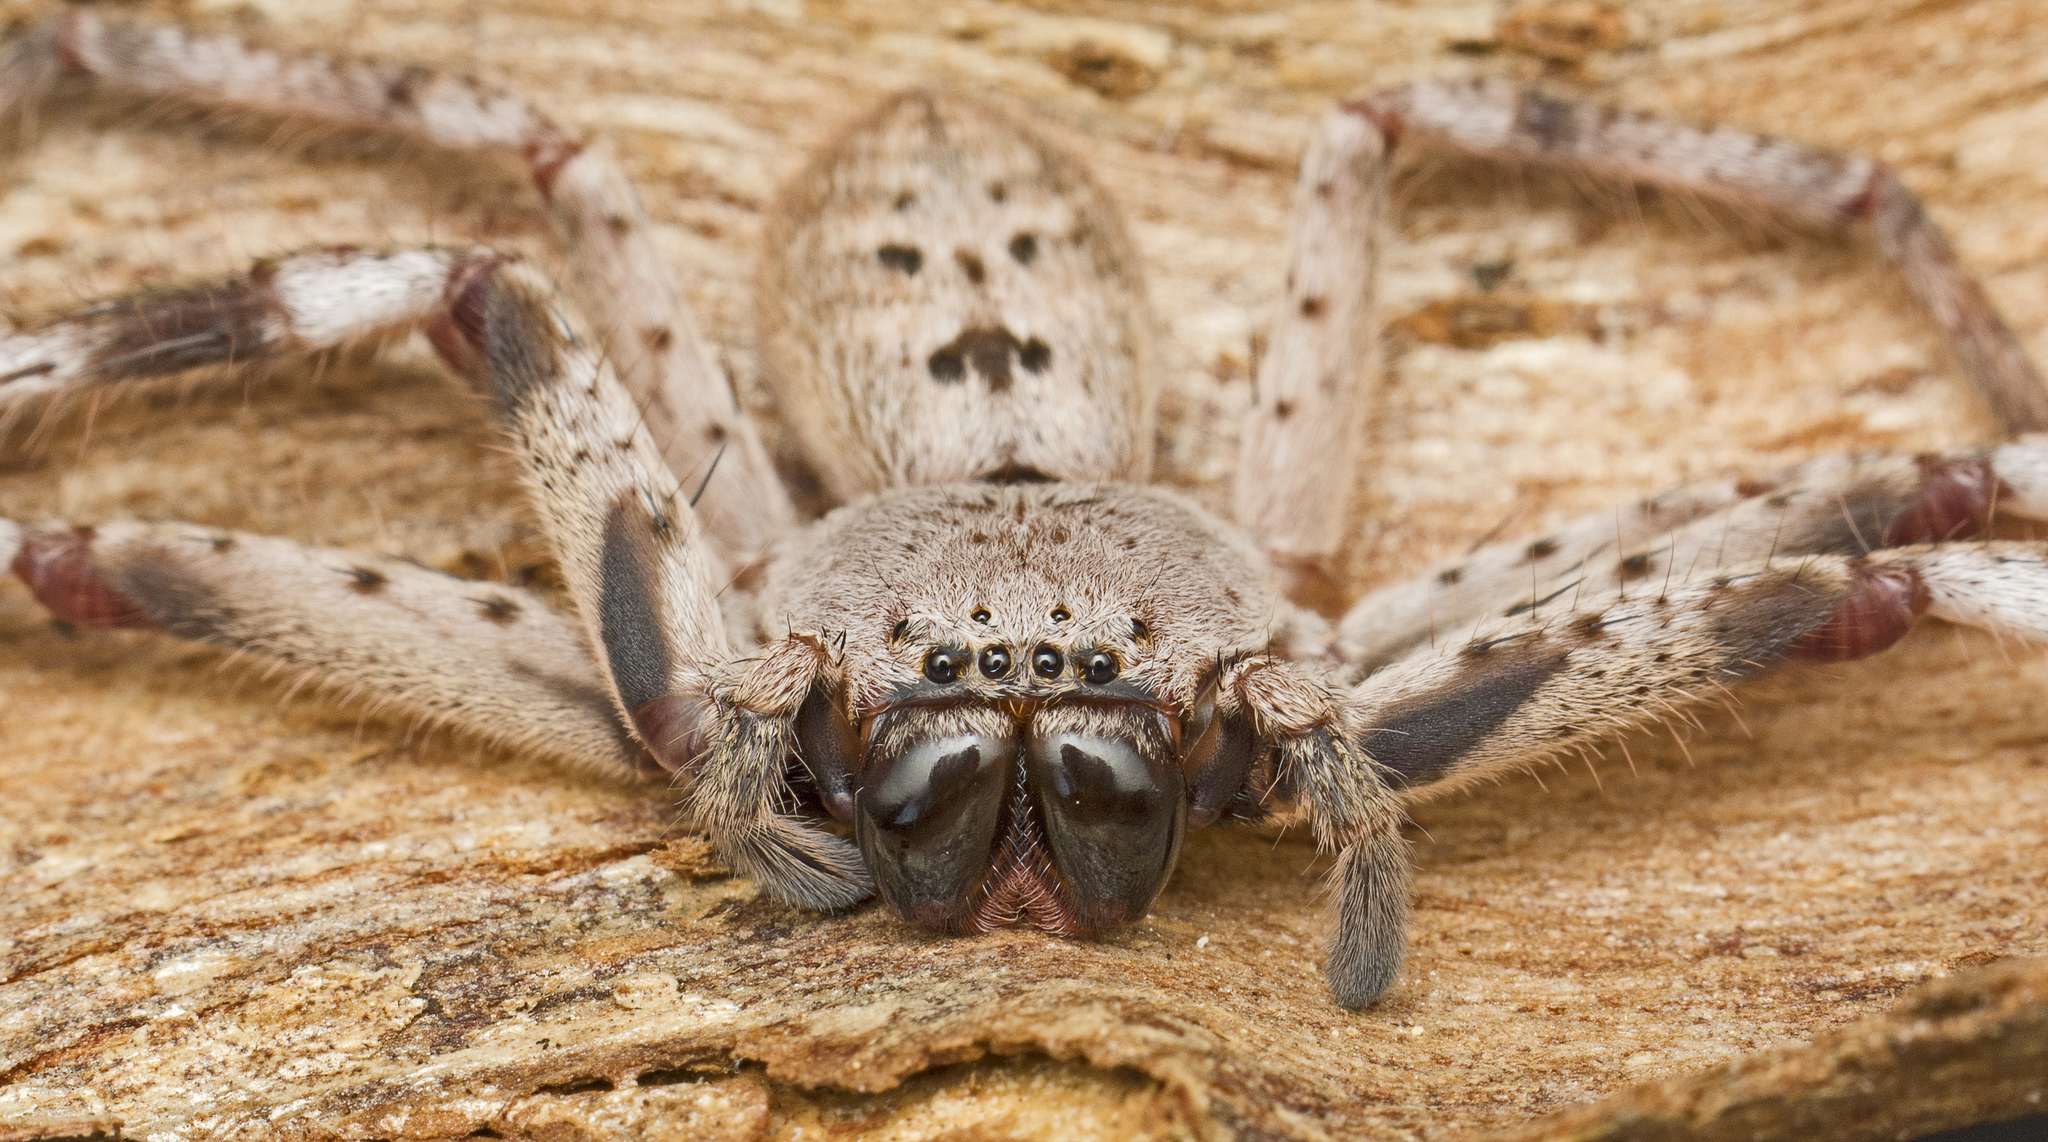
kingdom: Animalia
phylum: Arthropoda
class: Arachnida
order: Araneae
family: Sparassidae
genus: Isopeda
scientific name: Isopeda vasta
